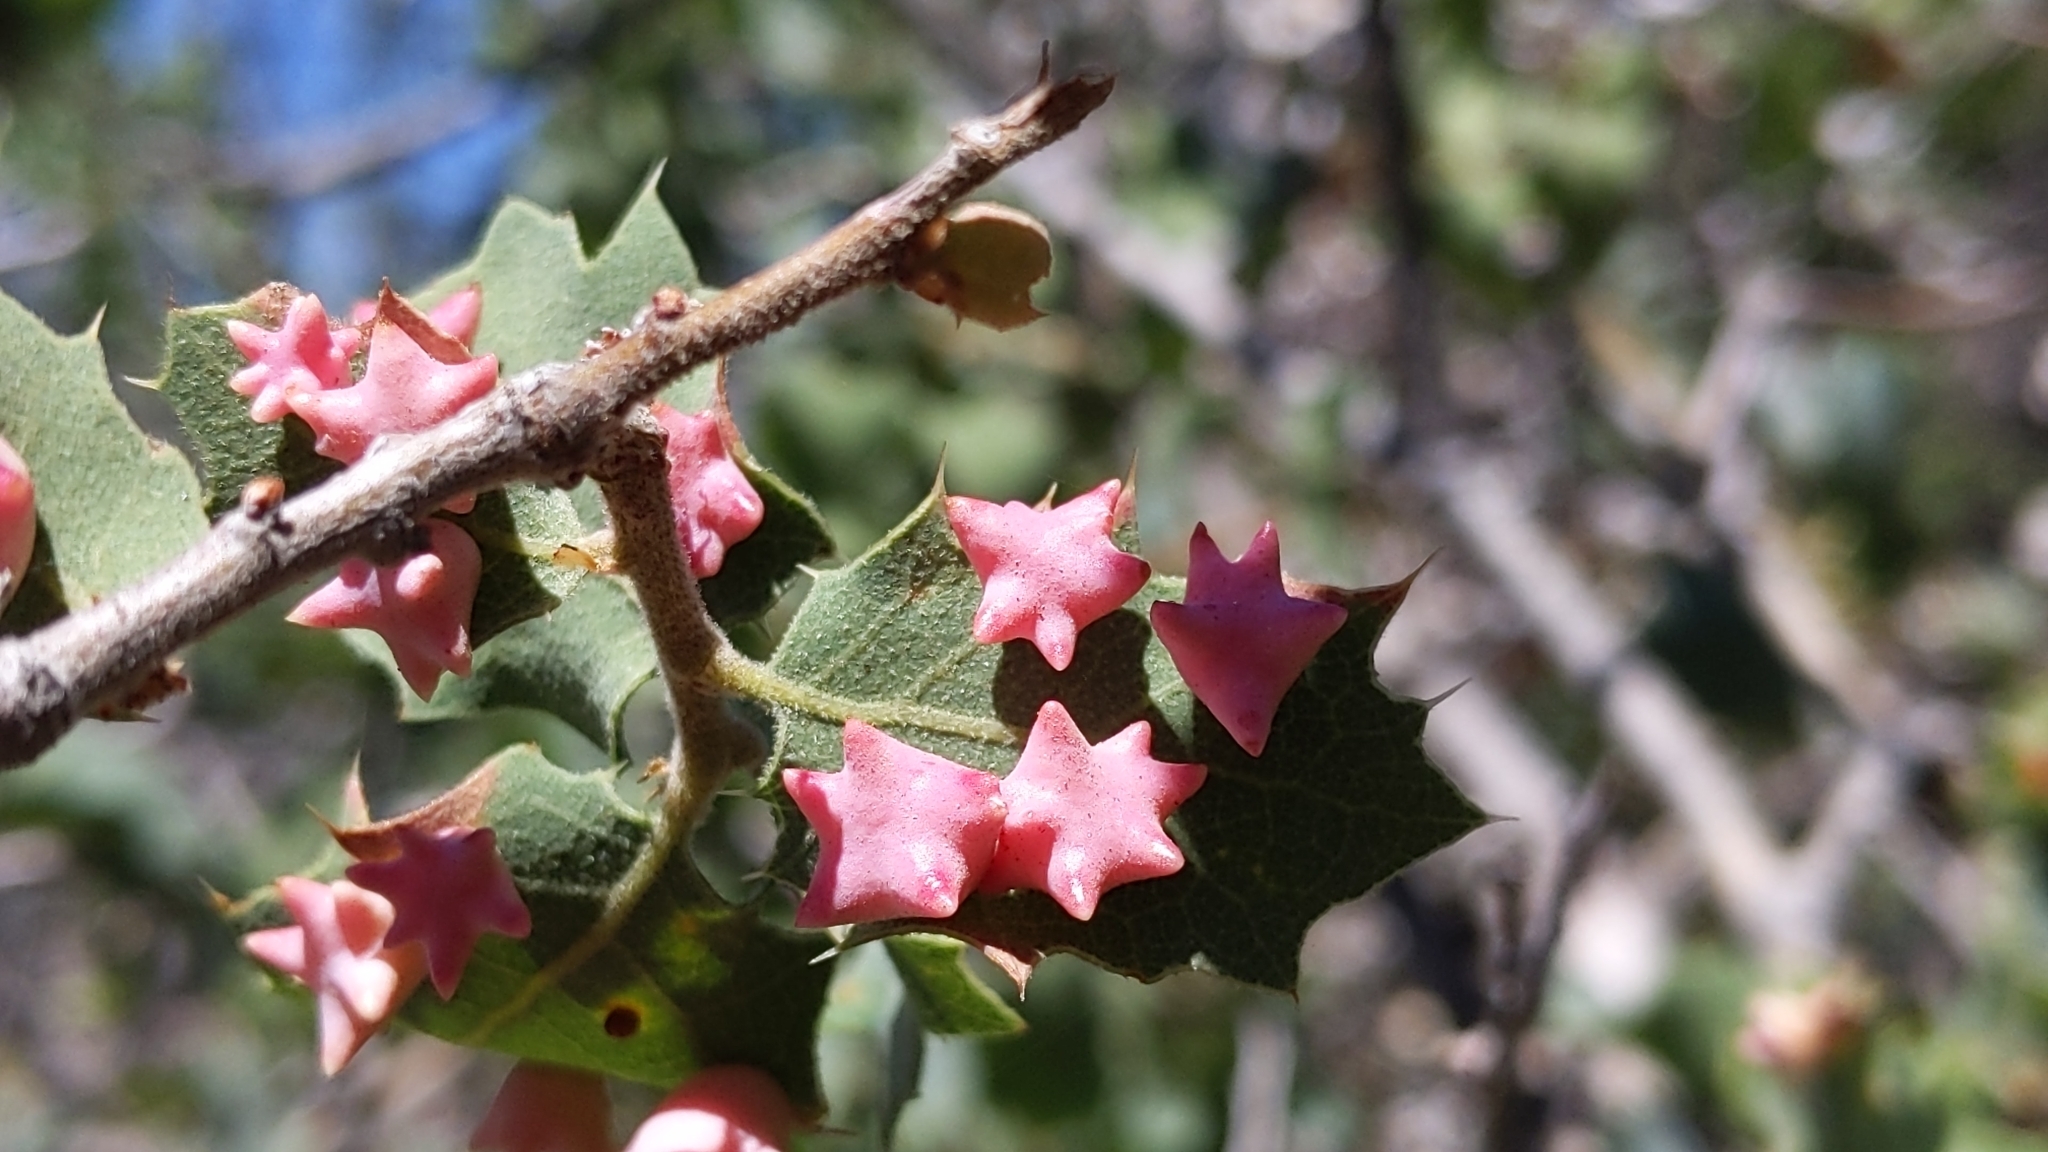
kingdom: Animalia
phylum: Arthropoda
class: Insecta
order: Hymenoptera
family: Cynipidae
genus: Cynips
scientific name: Cynips douglasi
